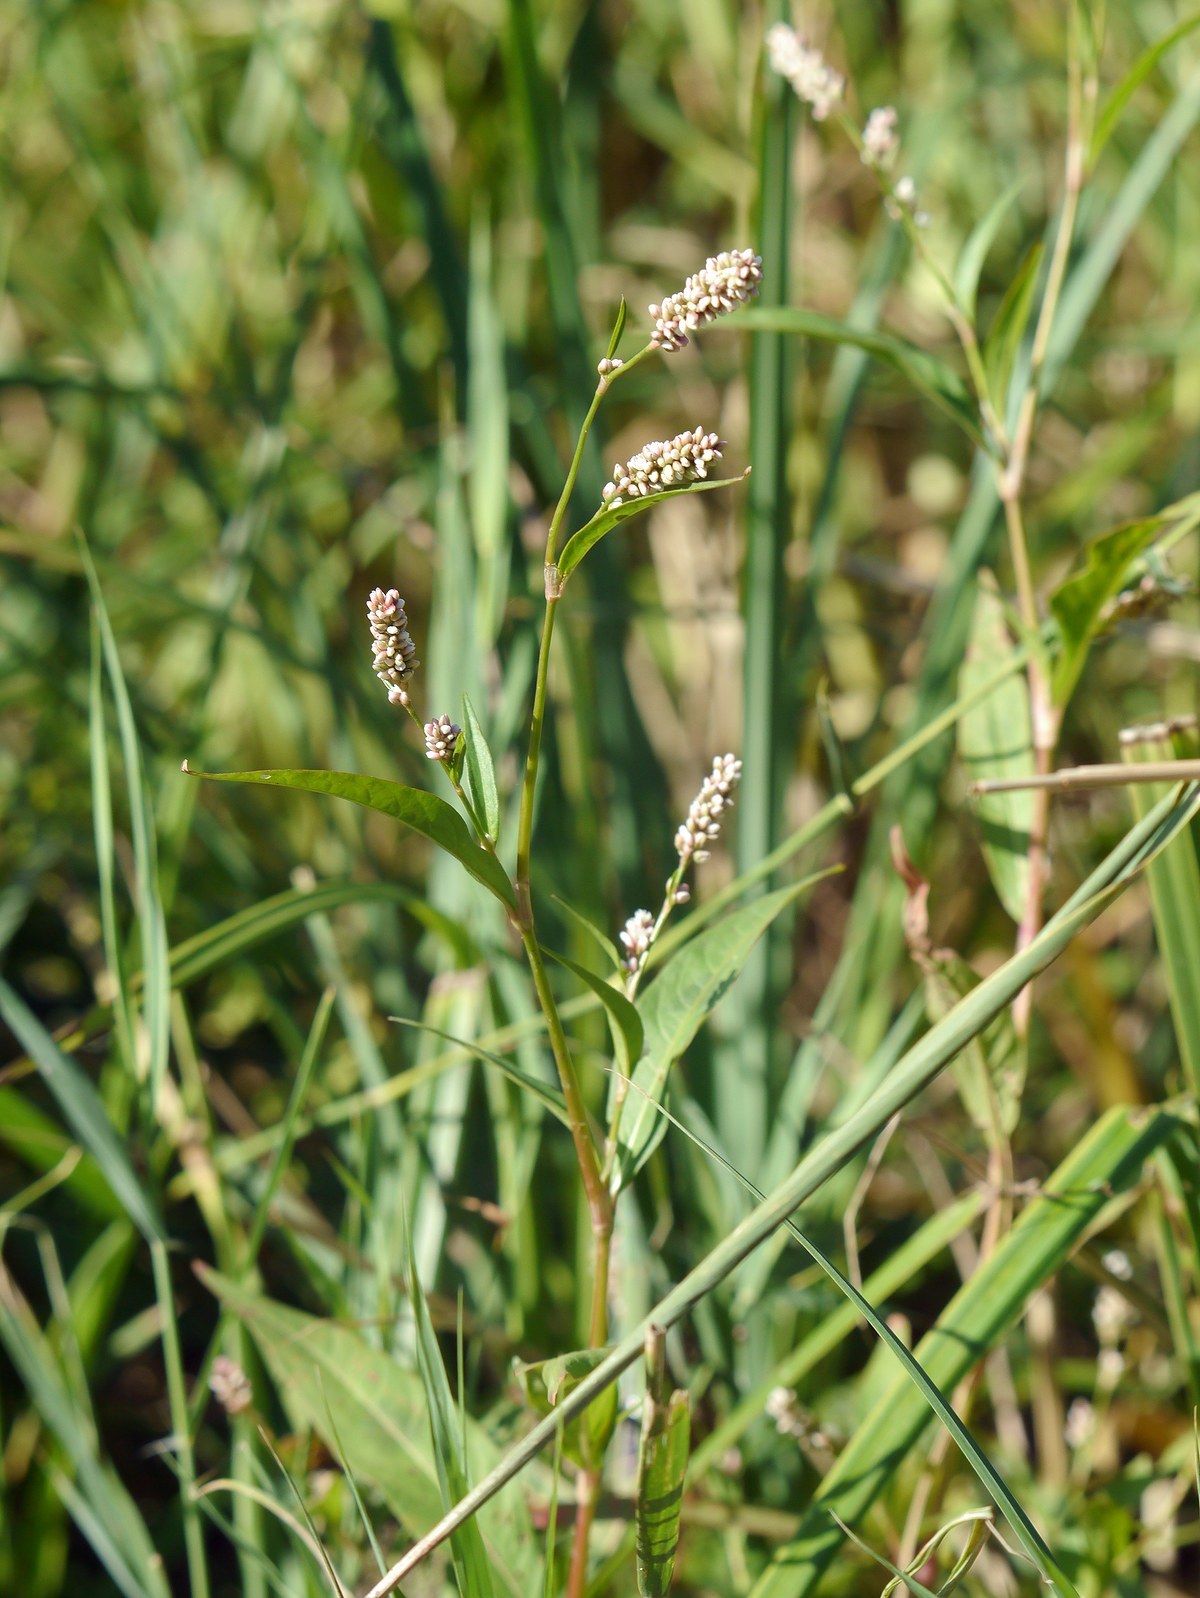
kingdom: Plantae
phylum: Tracheophyta
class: Magnoliopsida
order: Caryophyllales
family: Polygonaceae
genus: Persicaria
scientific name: Persicaria lapathifolia
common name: Curlytop knotweed
